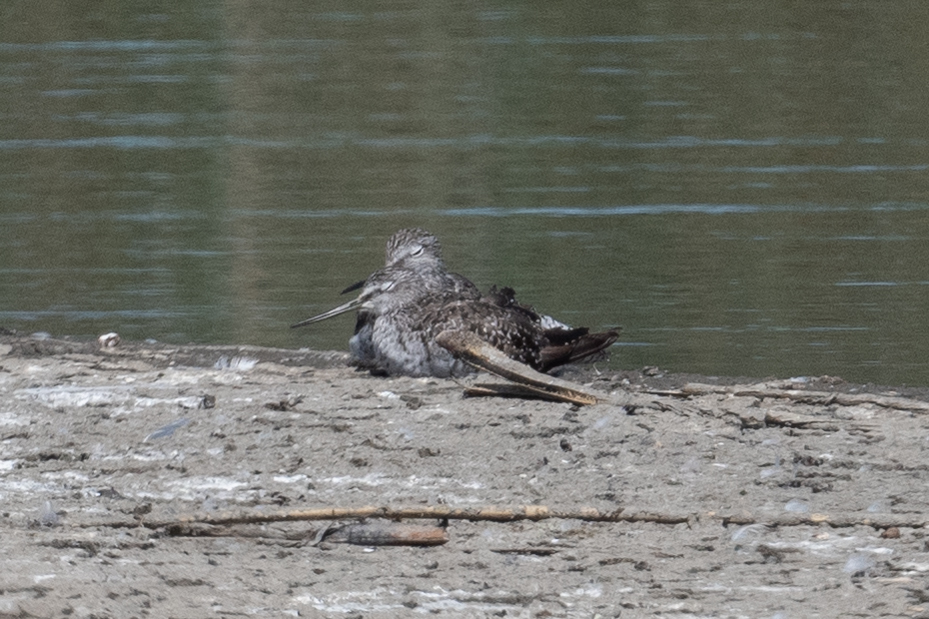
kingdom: Animalia
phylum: Chordata
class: Aves
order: Charadriiformes
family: Scolopacidae
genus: Tringa
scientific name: Tringa melanoleuca
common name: Greater yellowlegs
